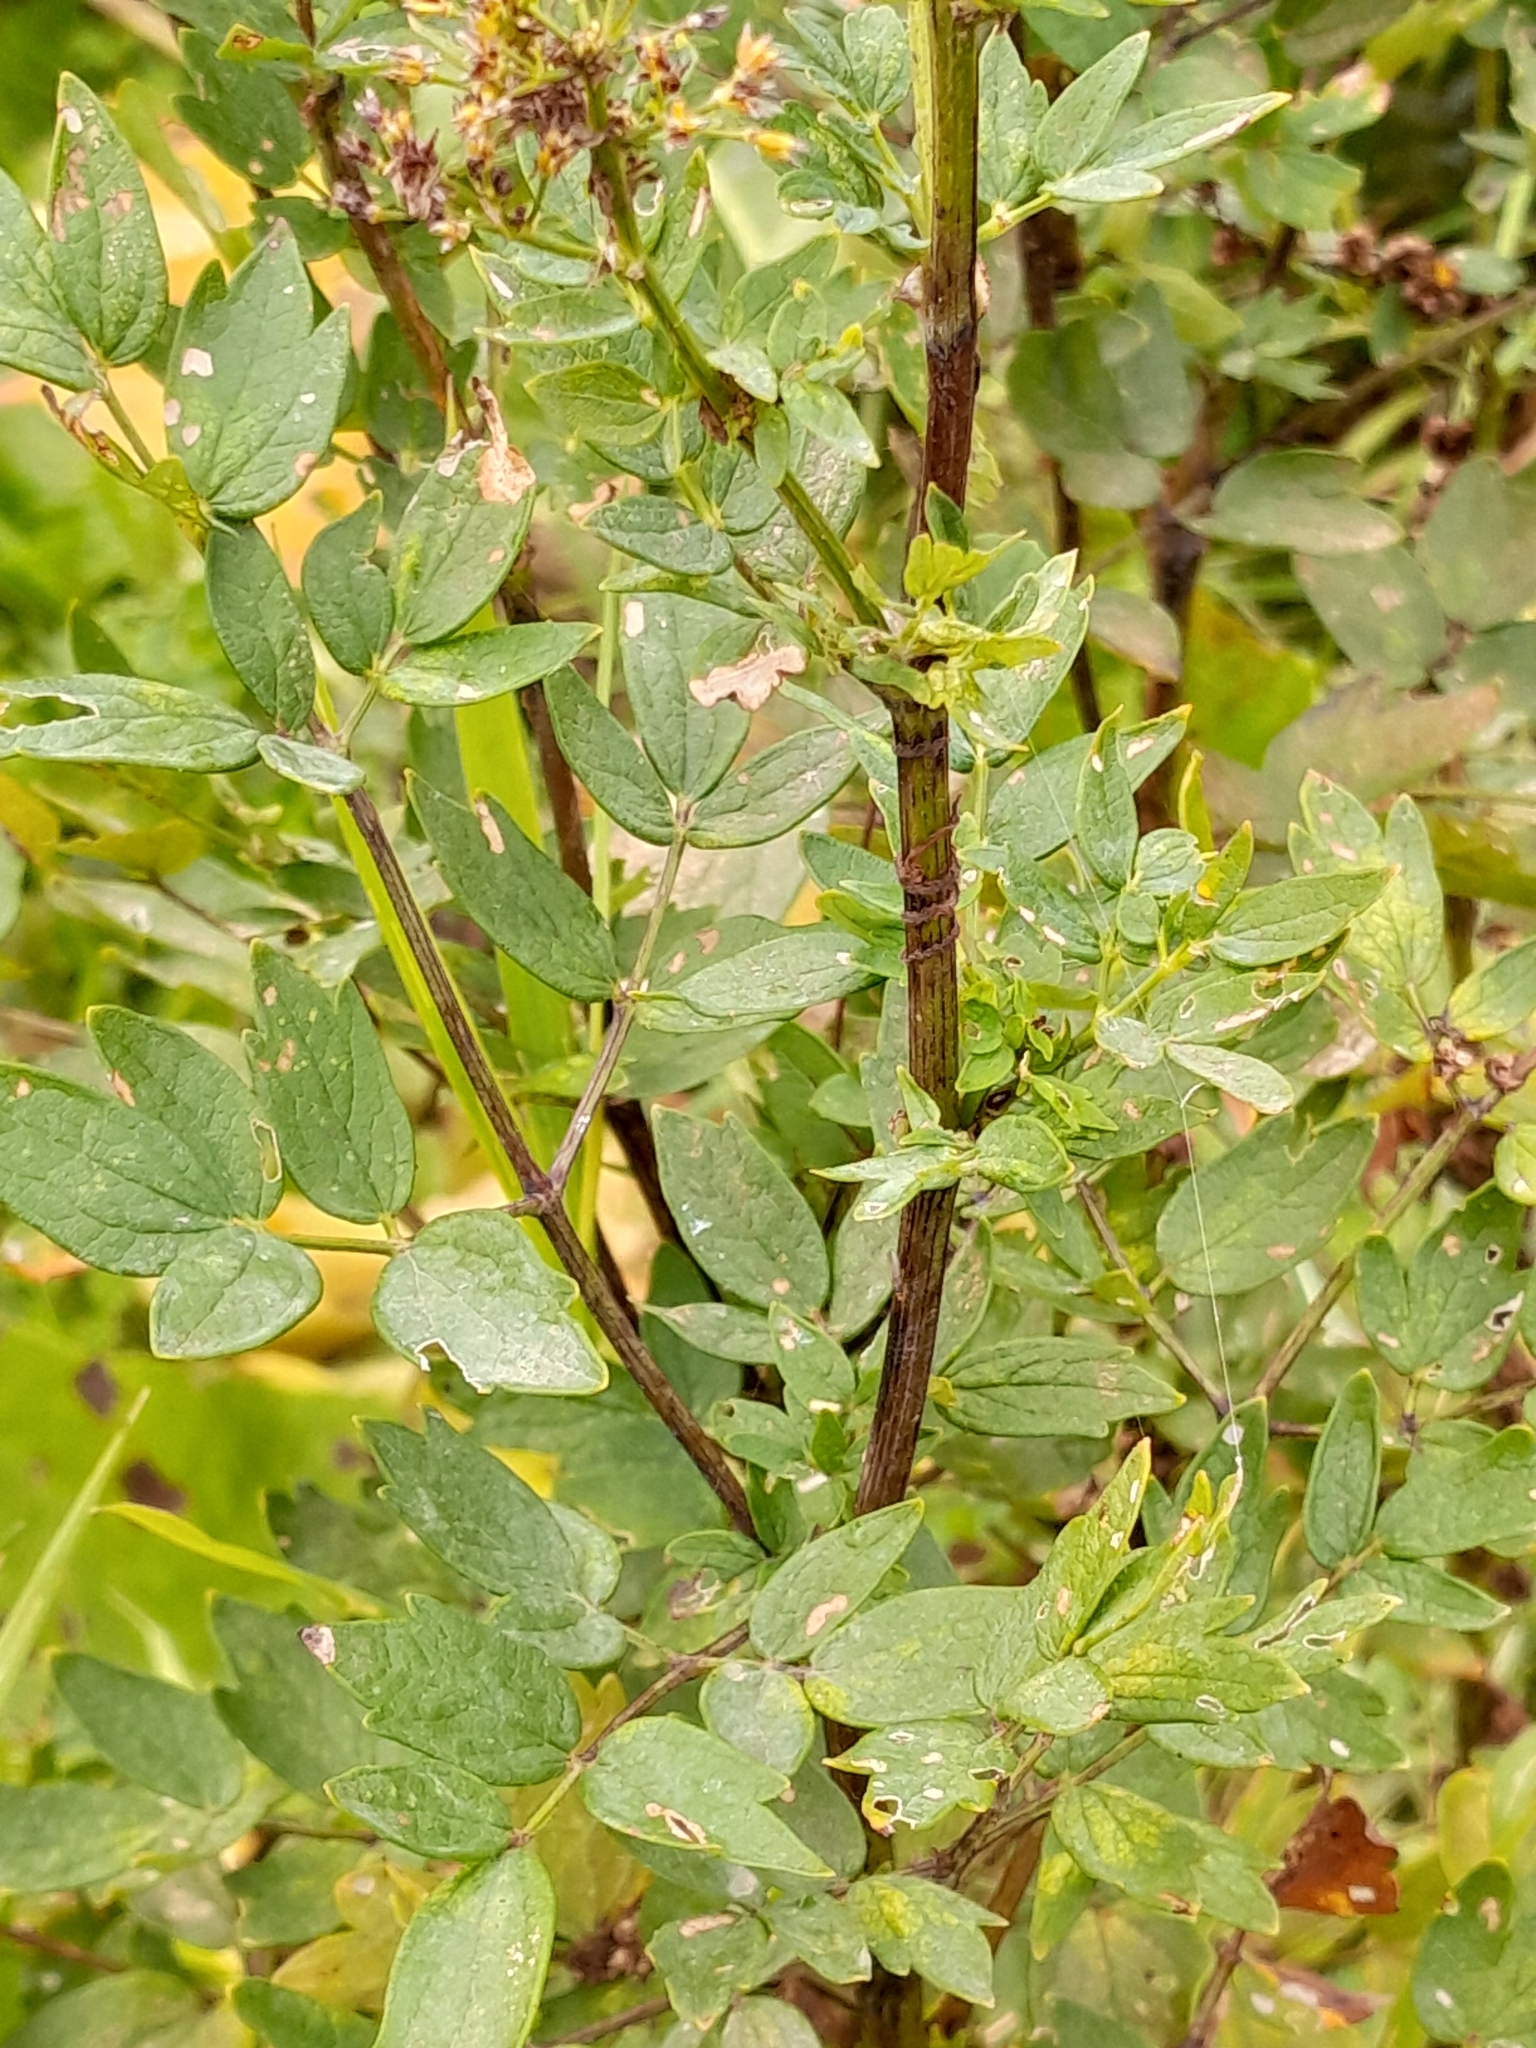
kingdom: Plantae
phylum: Tracheophyta
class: Magnoliopsida
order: Ranunculales
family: Ranunculaceae
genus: Thalictrum
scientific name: Thalictrum flavum
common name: Common meadow-rue
